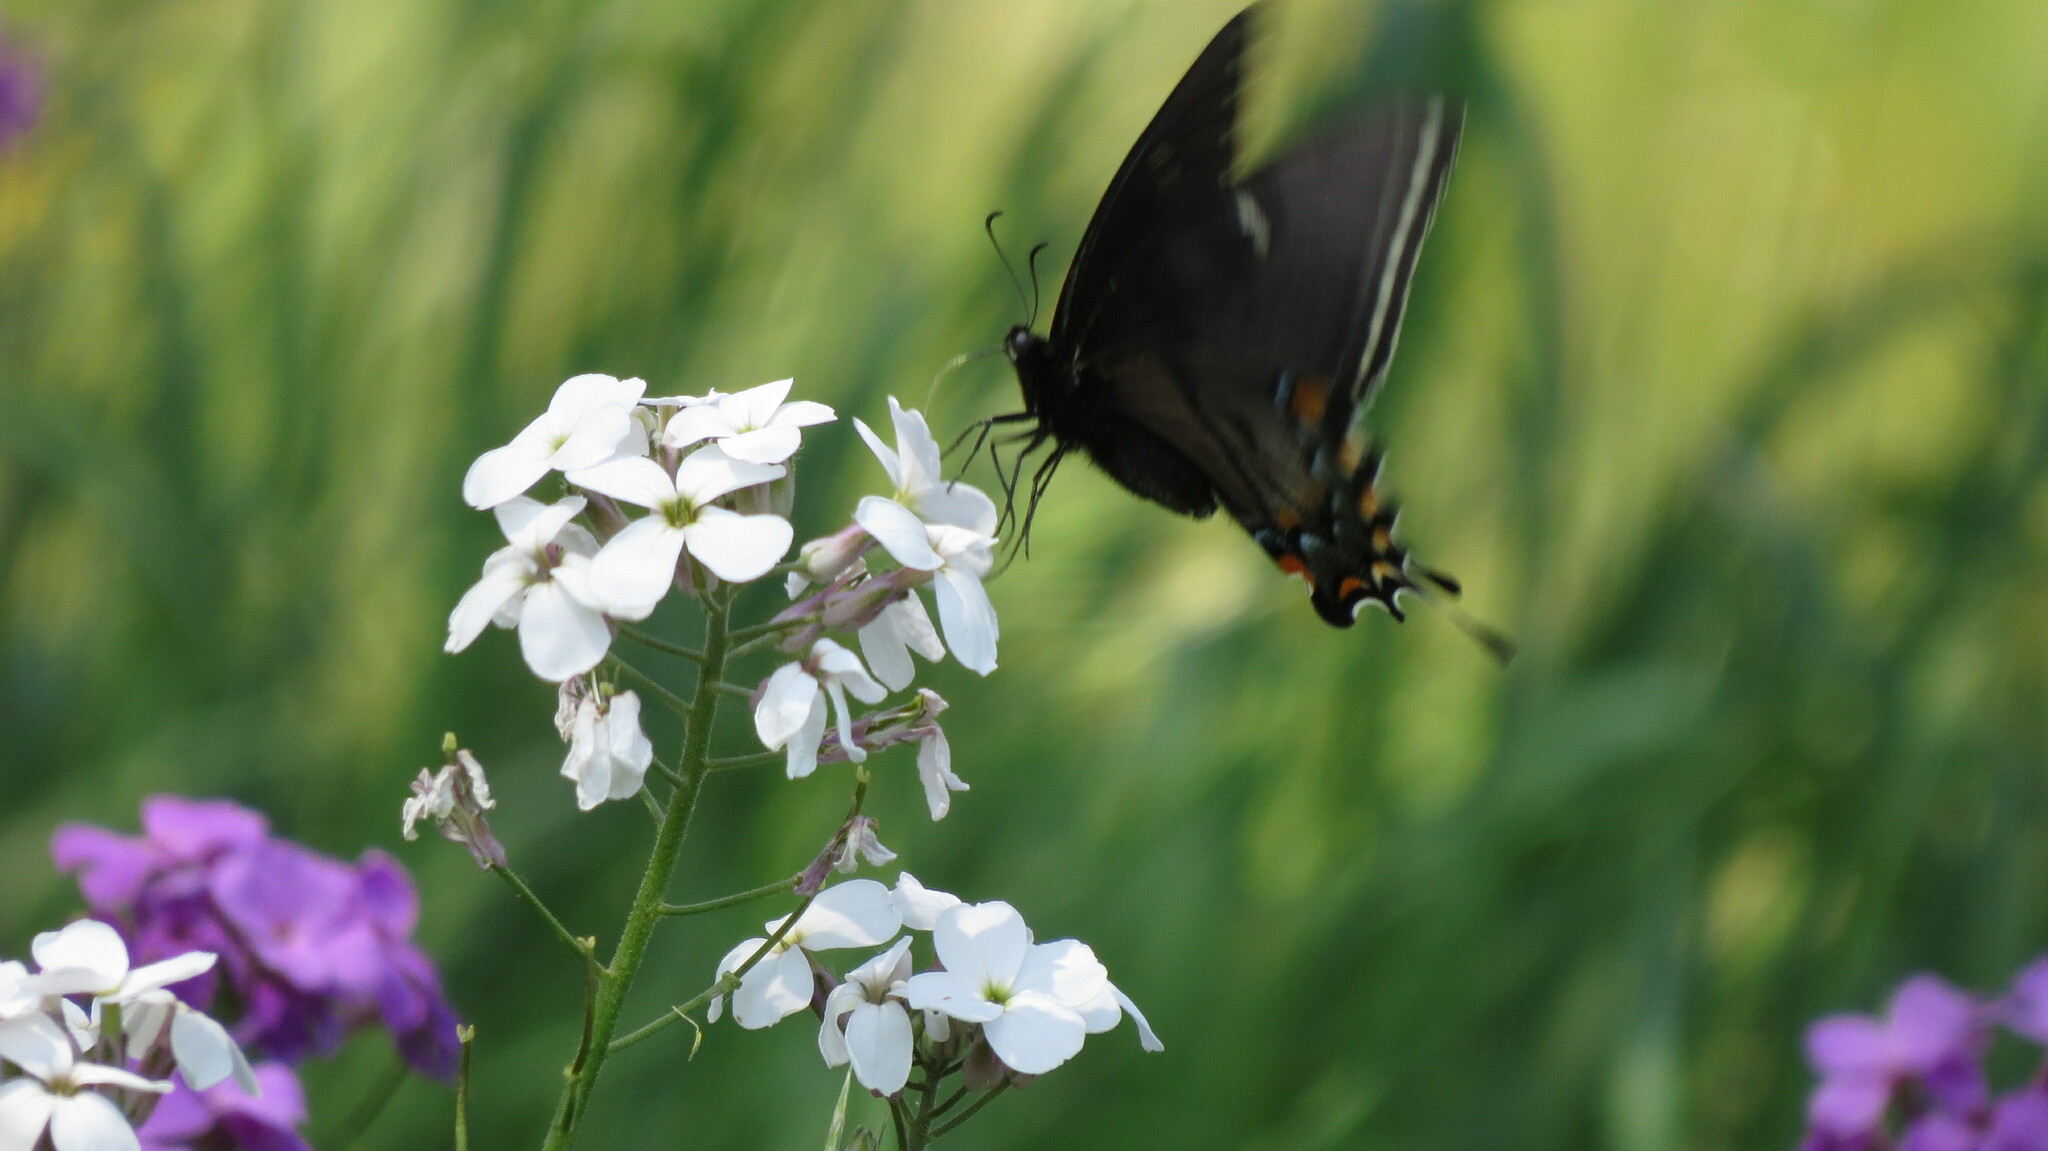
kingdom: Animalia
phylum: Arthropoda
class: Insecta
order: Lepidoptera
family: Papilionidae
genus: Papilio
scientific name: Papilio glaucus
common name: Tiger swallowtail
